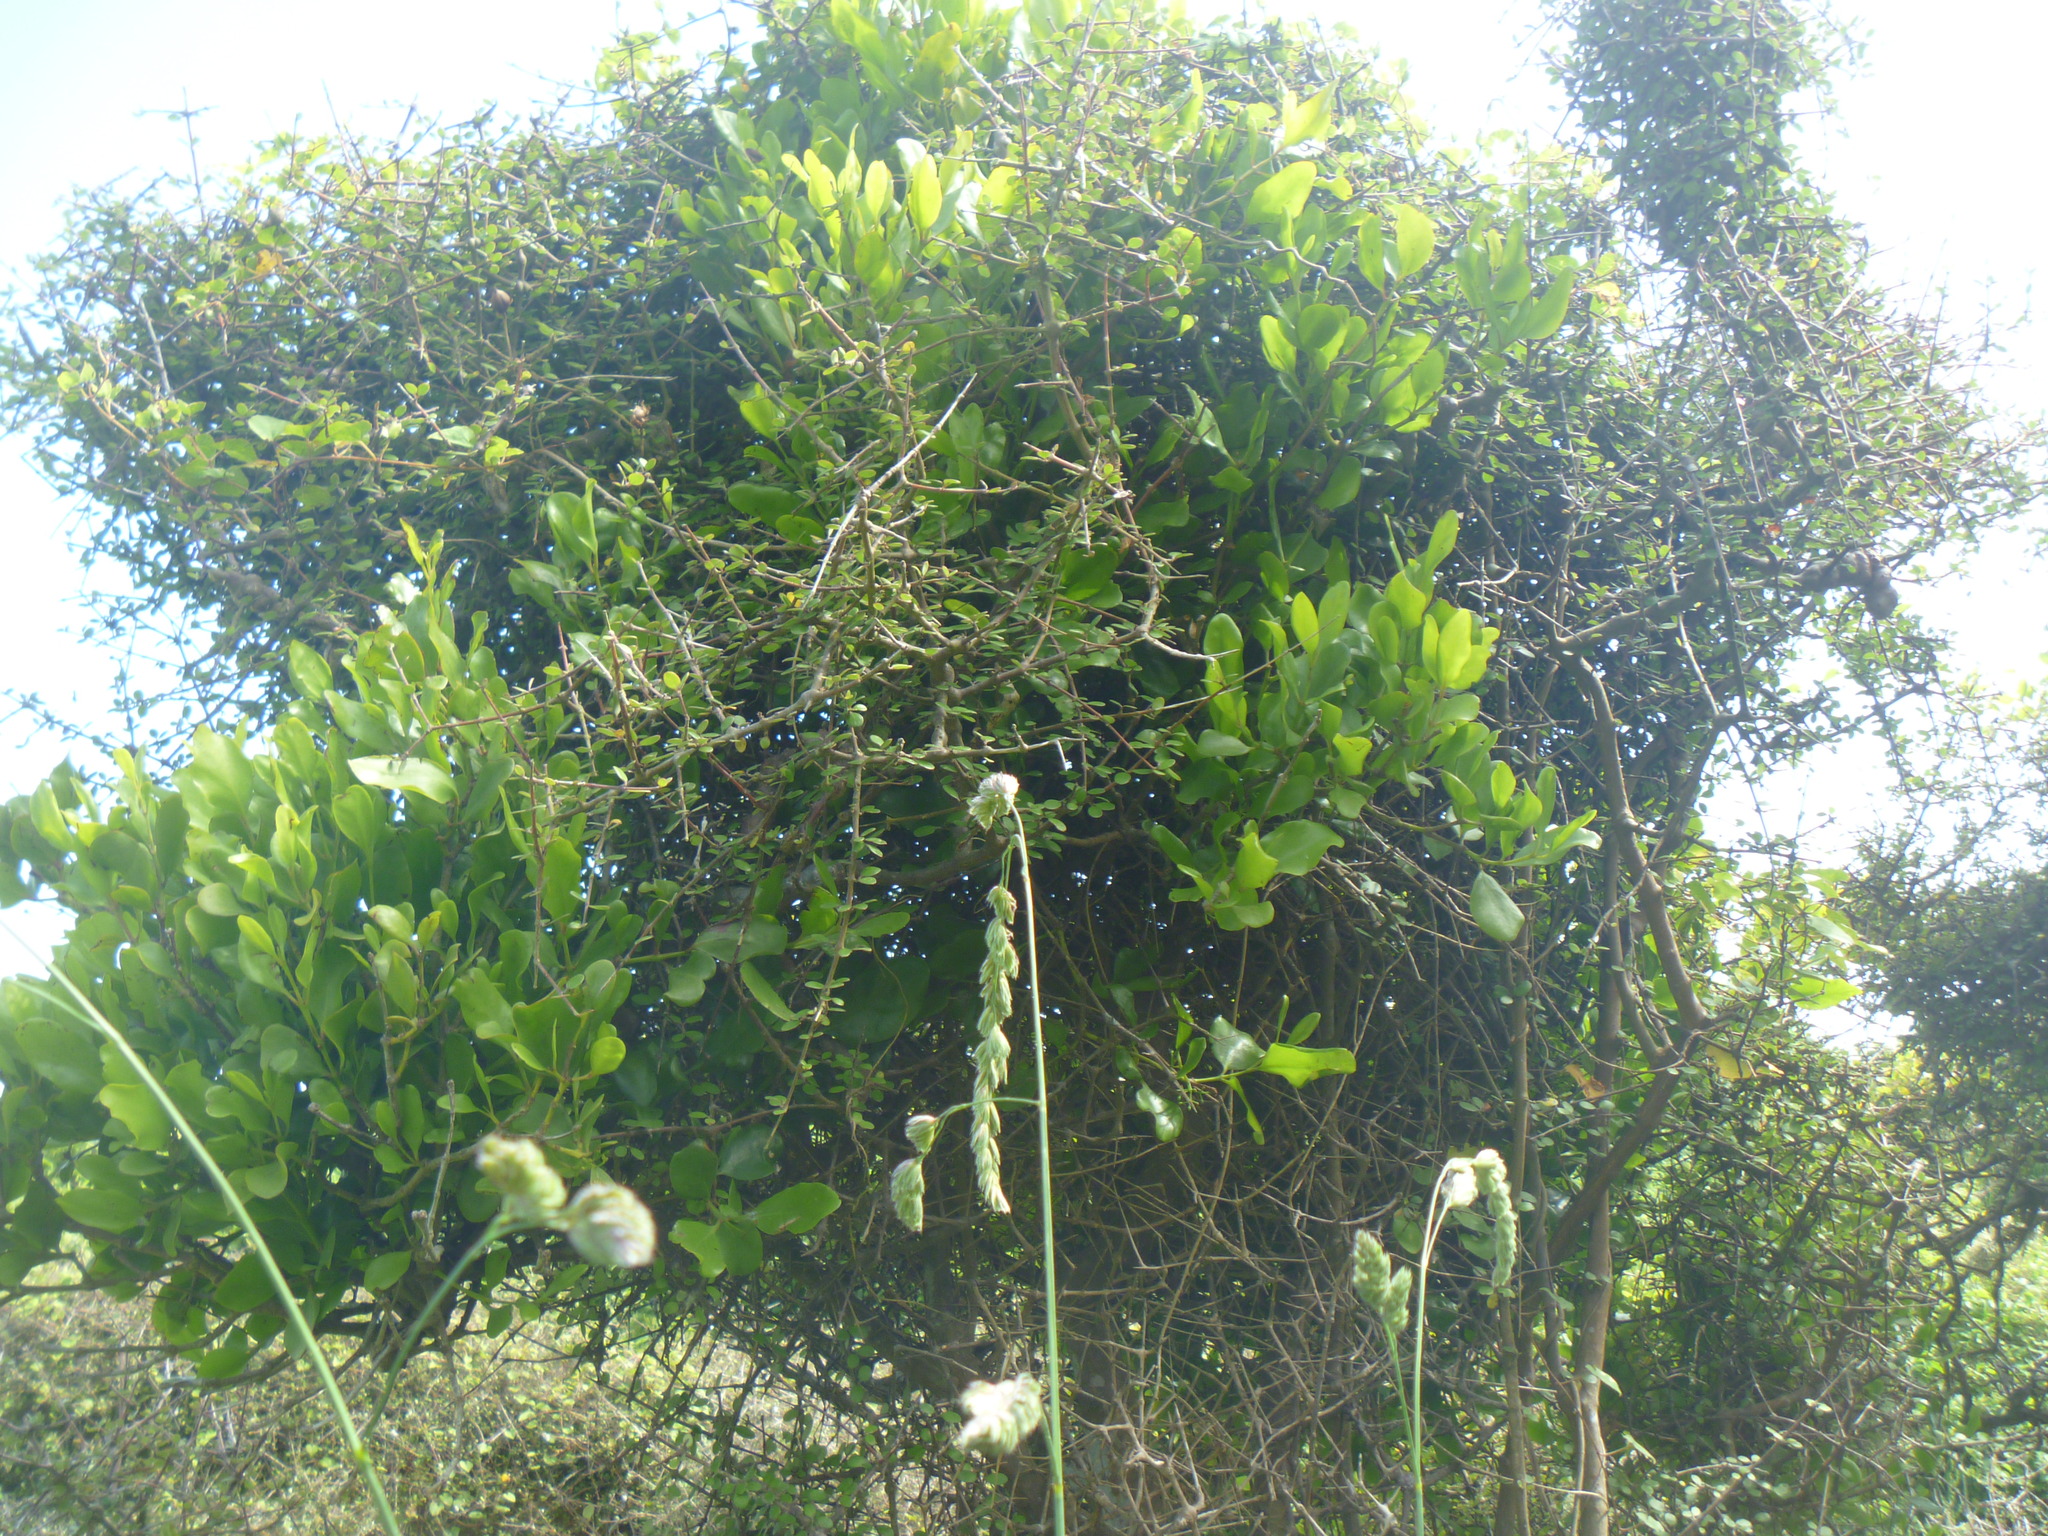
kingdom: Plantae
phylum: Tracheophyta
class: Magnoliopsida
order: Santalales
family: Loranthaceae
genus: Ileostylus
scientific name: Ileostylus micranthus
